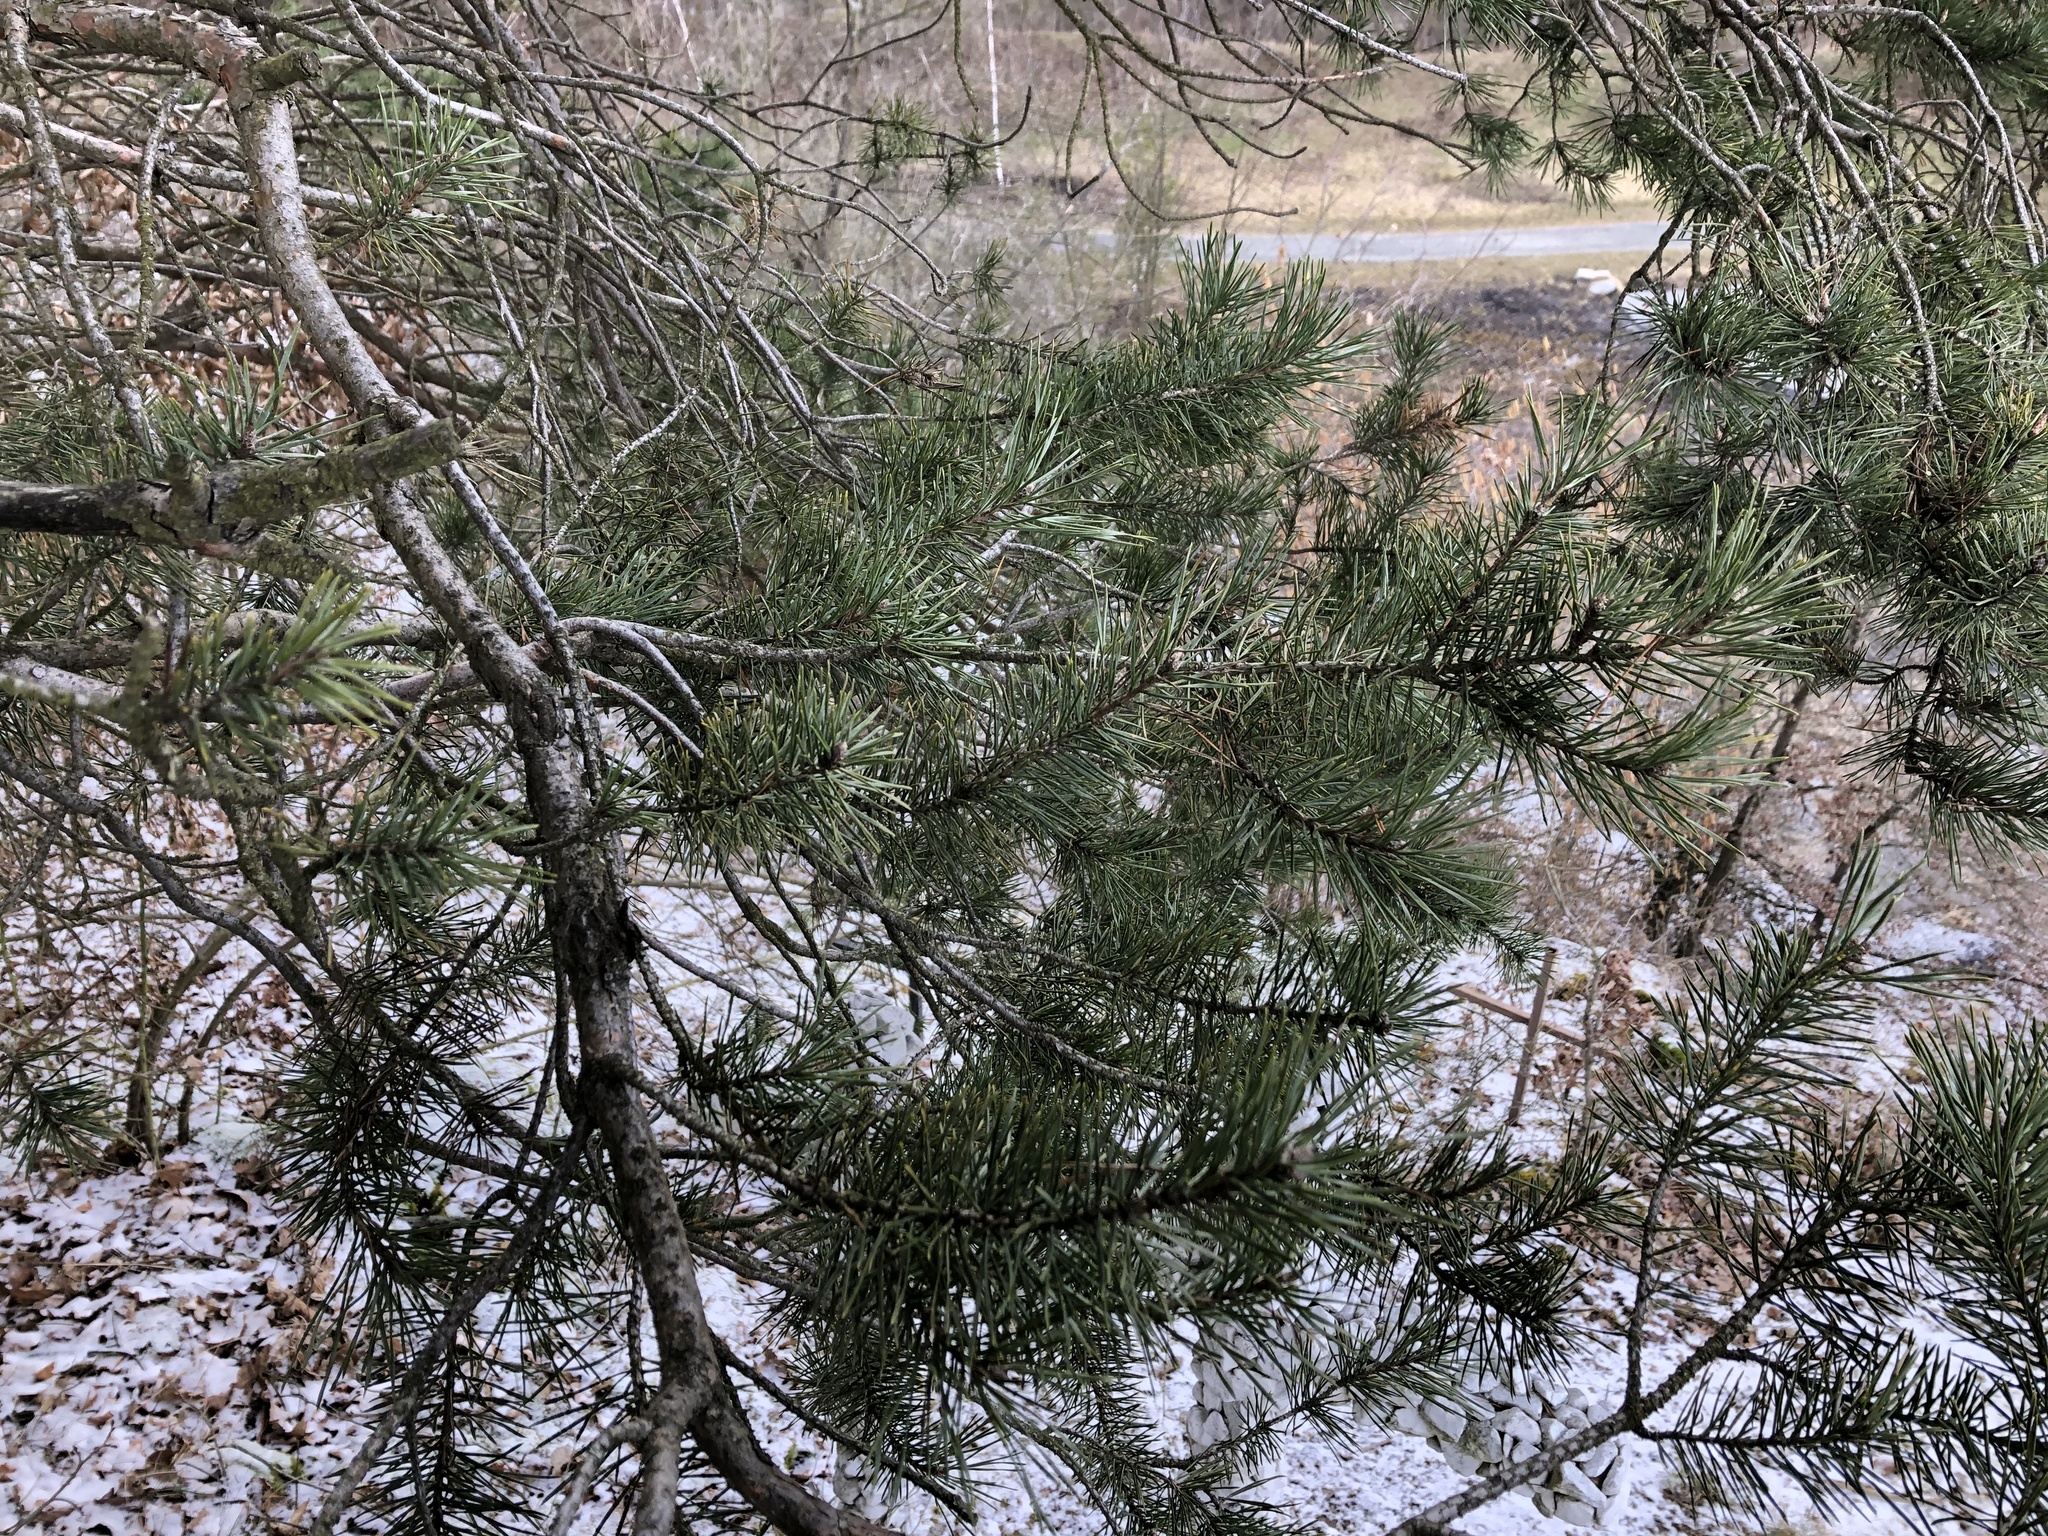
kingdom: Plantae
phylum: Tracheophyta
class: Pinopsida
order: Pinales
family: Pinaceae
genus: Pinus
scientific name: Pinus sylvestris
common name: Scots pine
